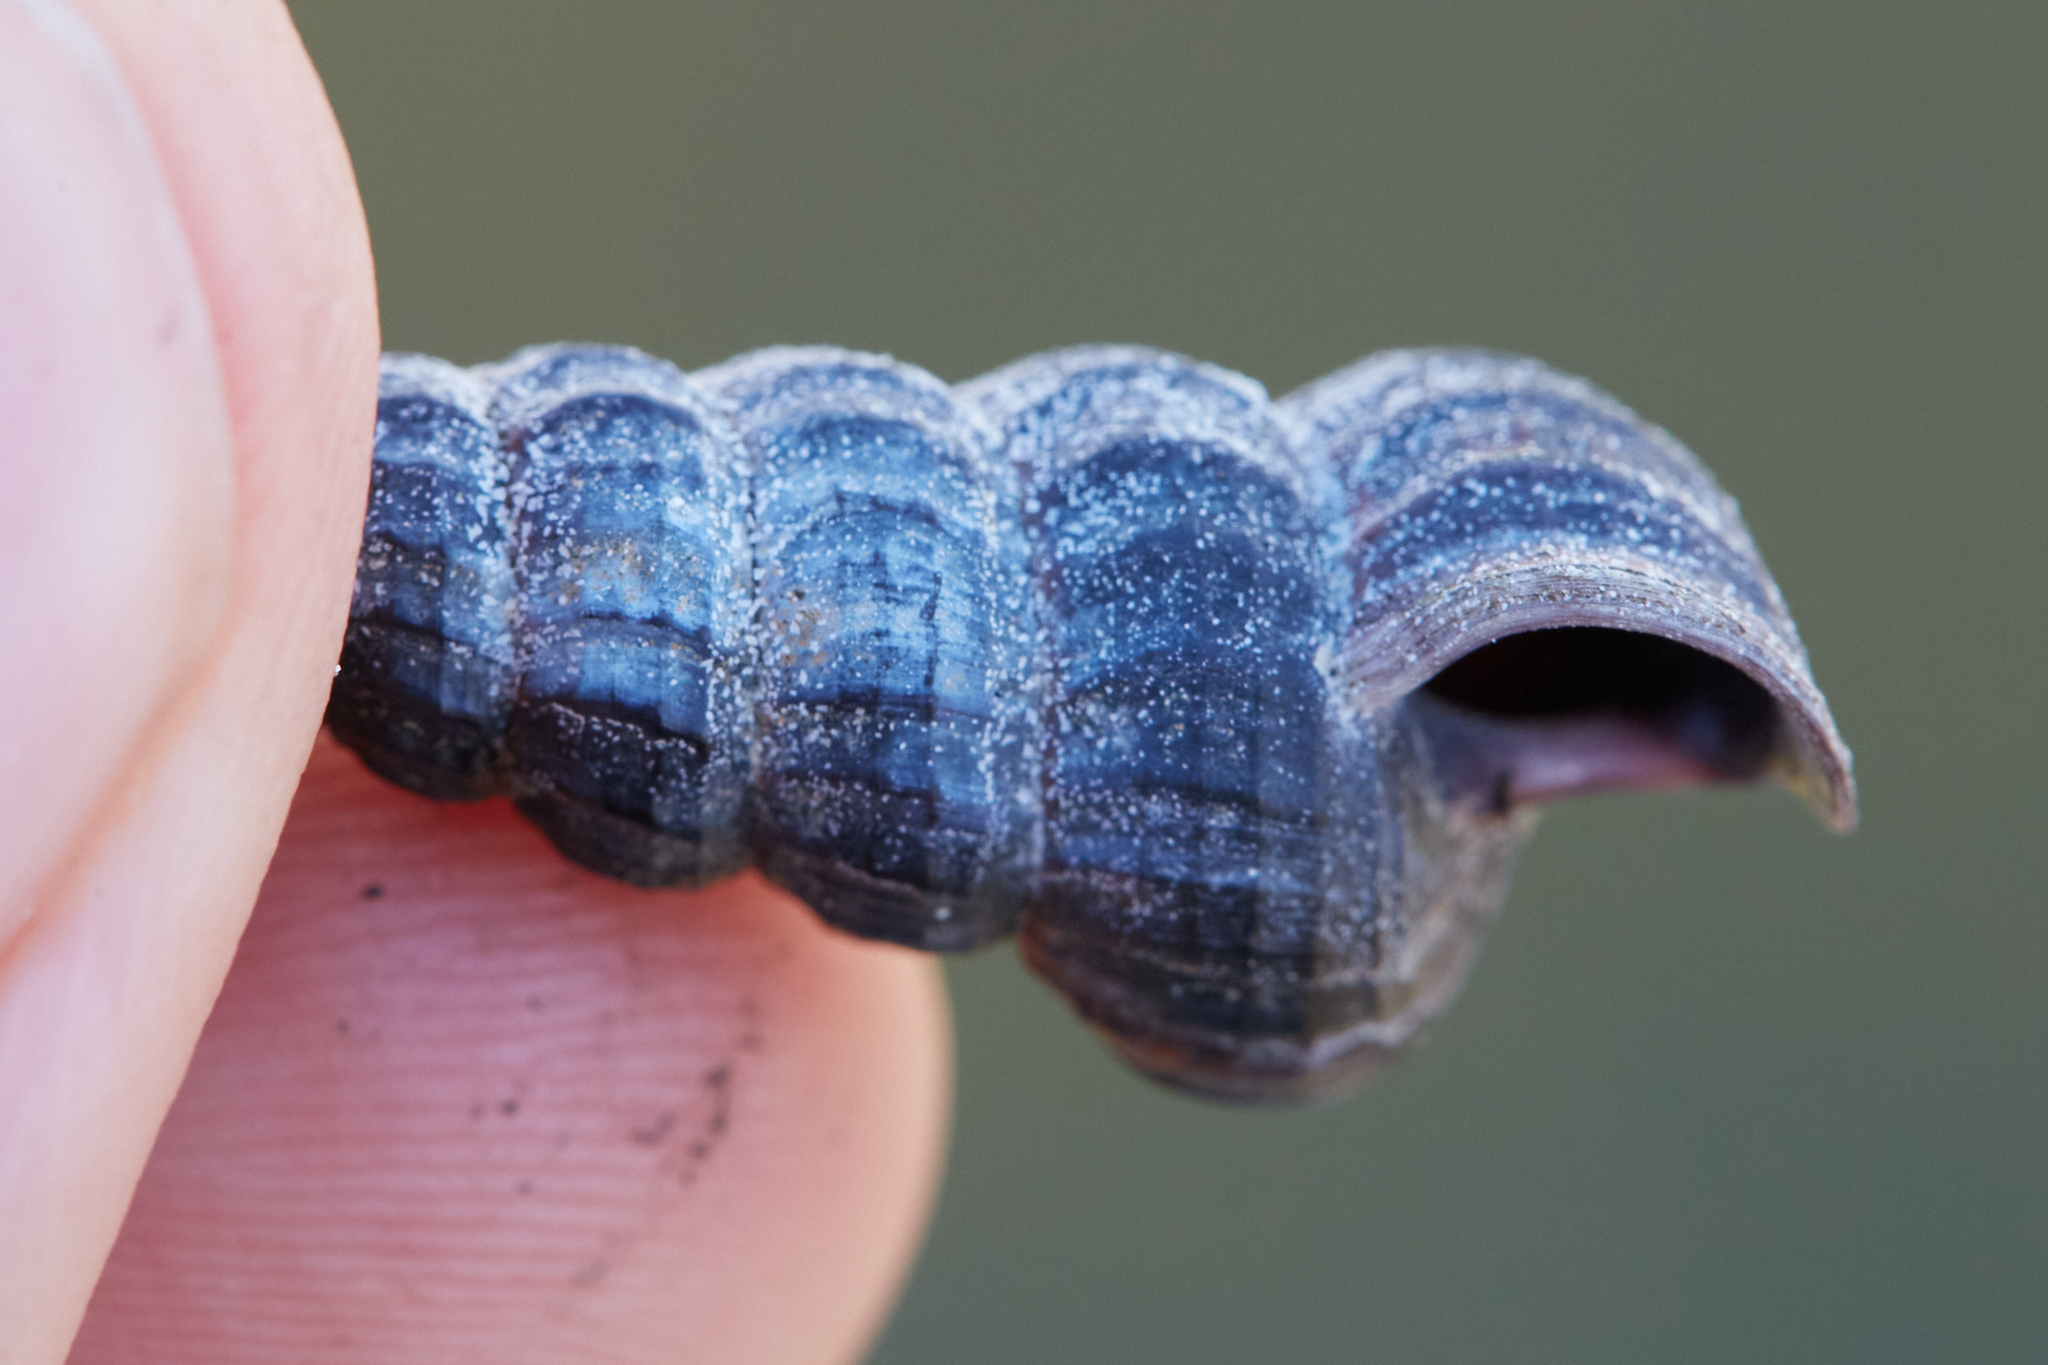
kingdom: Animalia
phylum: Mollusca
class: Gastropoda
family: Potamididae
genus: Cerithideopsis
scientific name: Cerithideopsis californica
